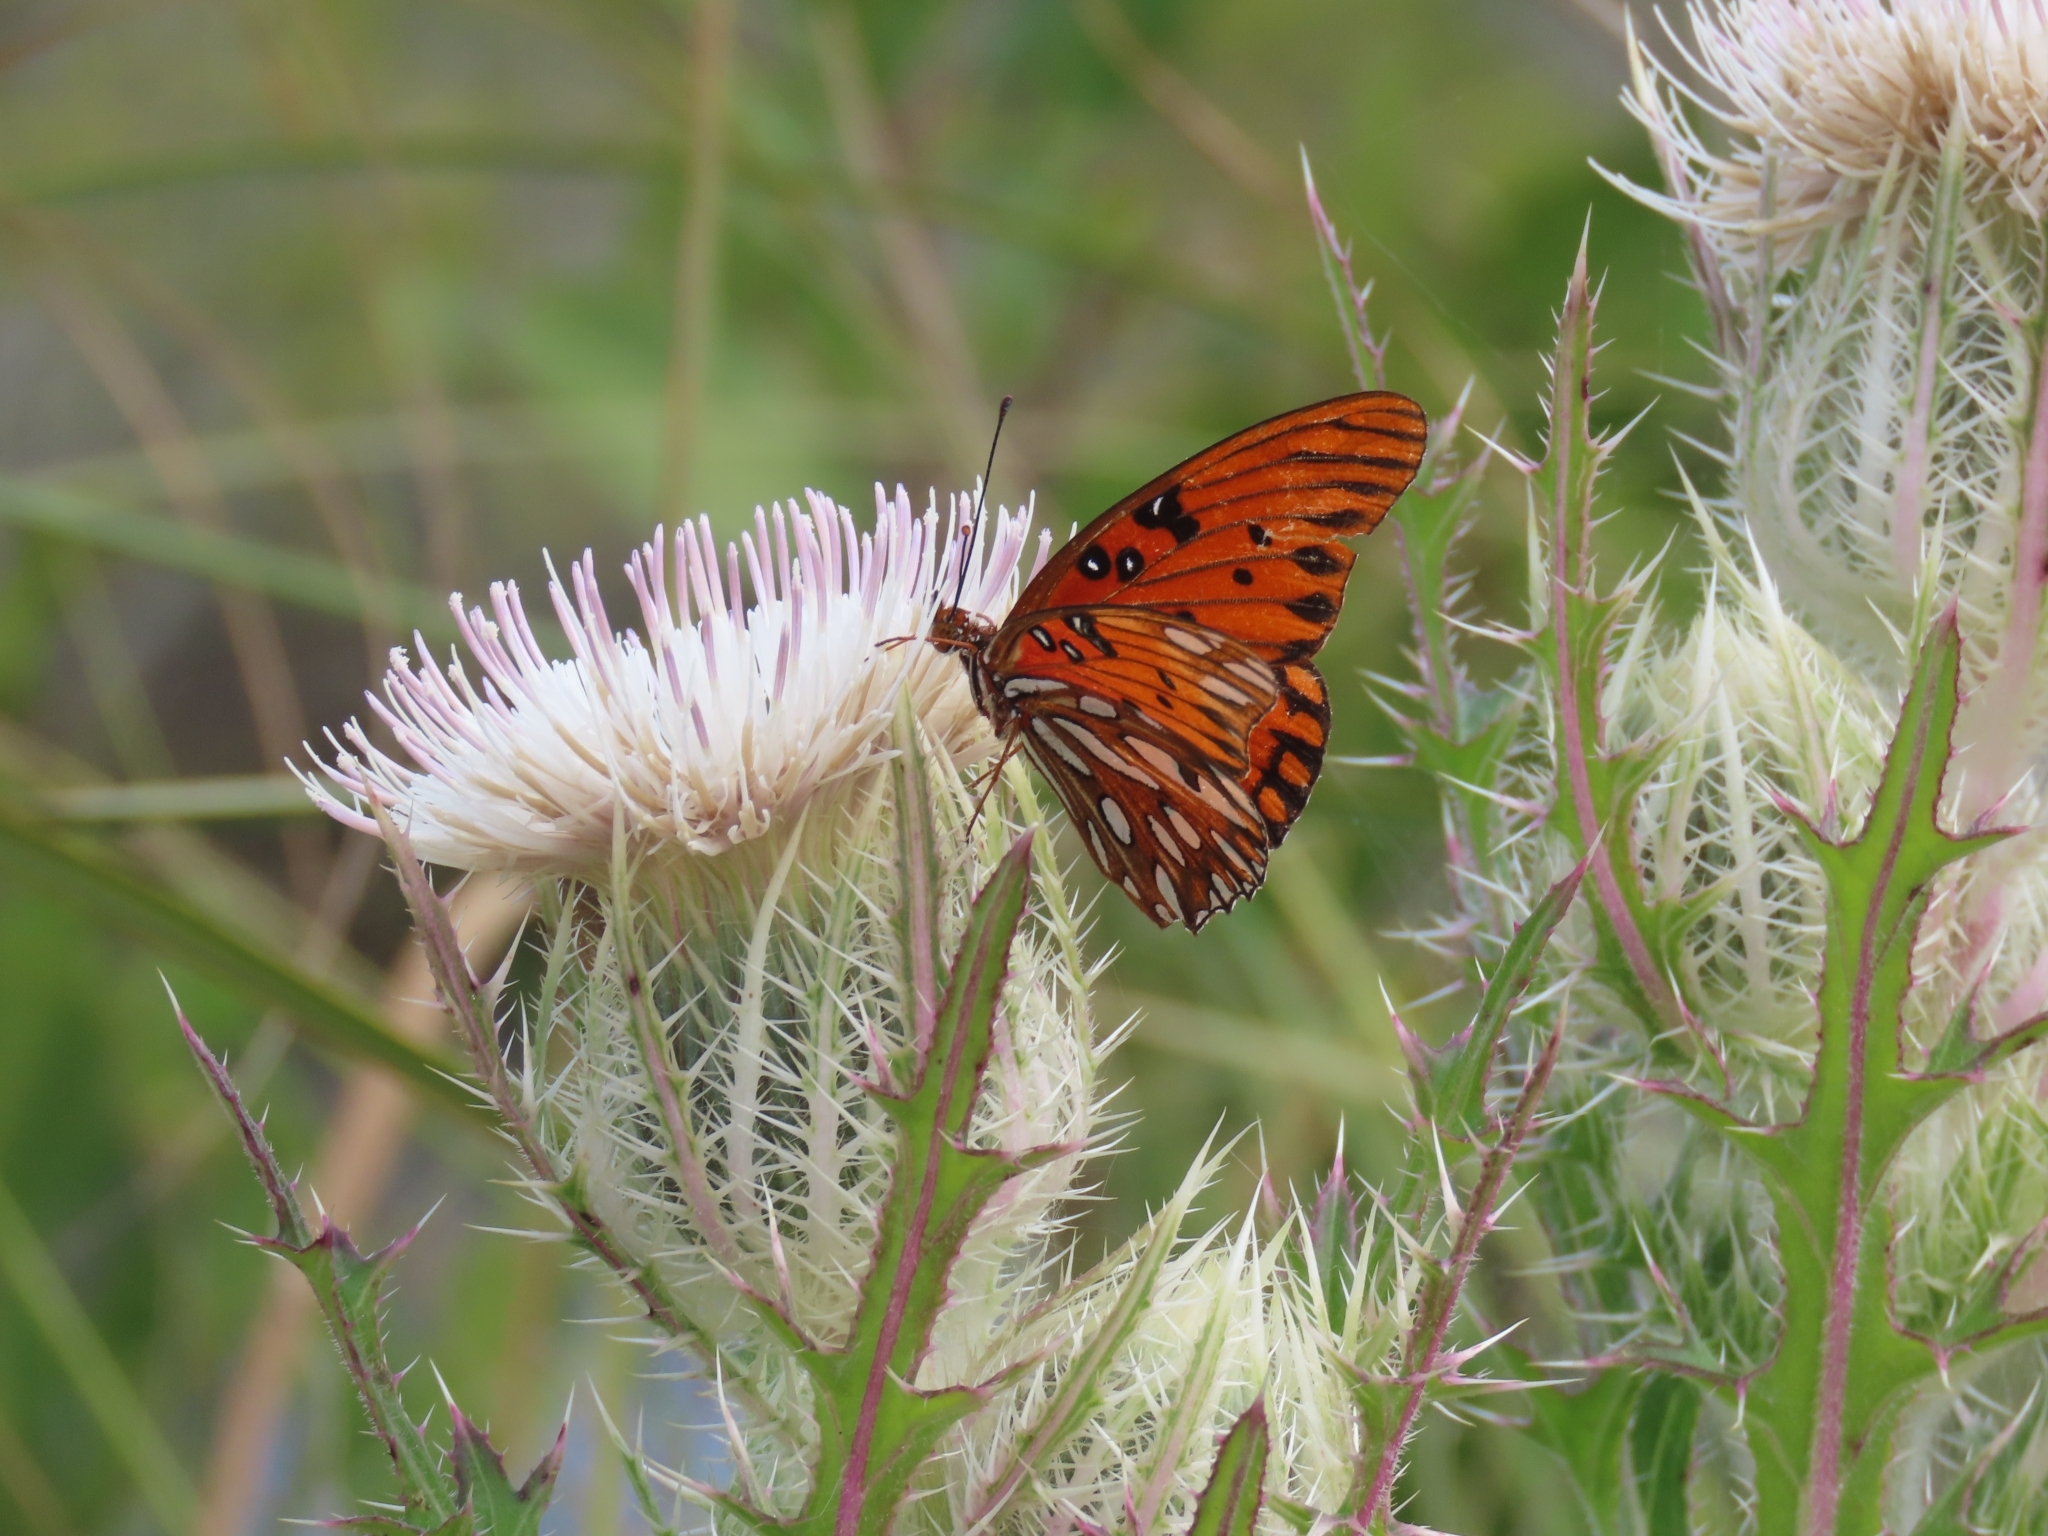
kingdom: Animalia
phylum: Arthropoda
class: Insecta
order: Lepidoptera
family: Nymphalidae
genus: Dione
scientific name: Dione vanillae
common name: Gulf fritillary
